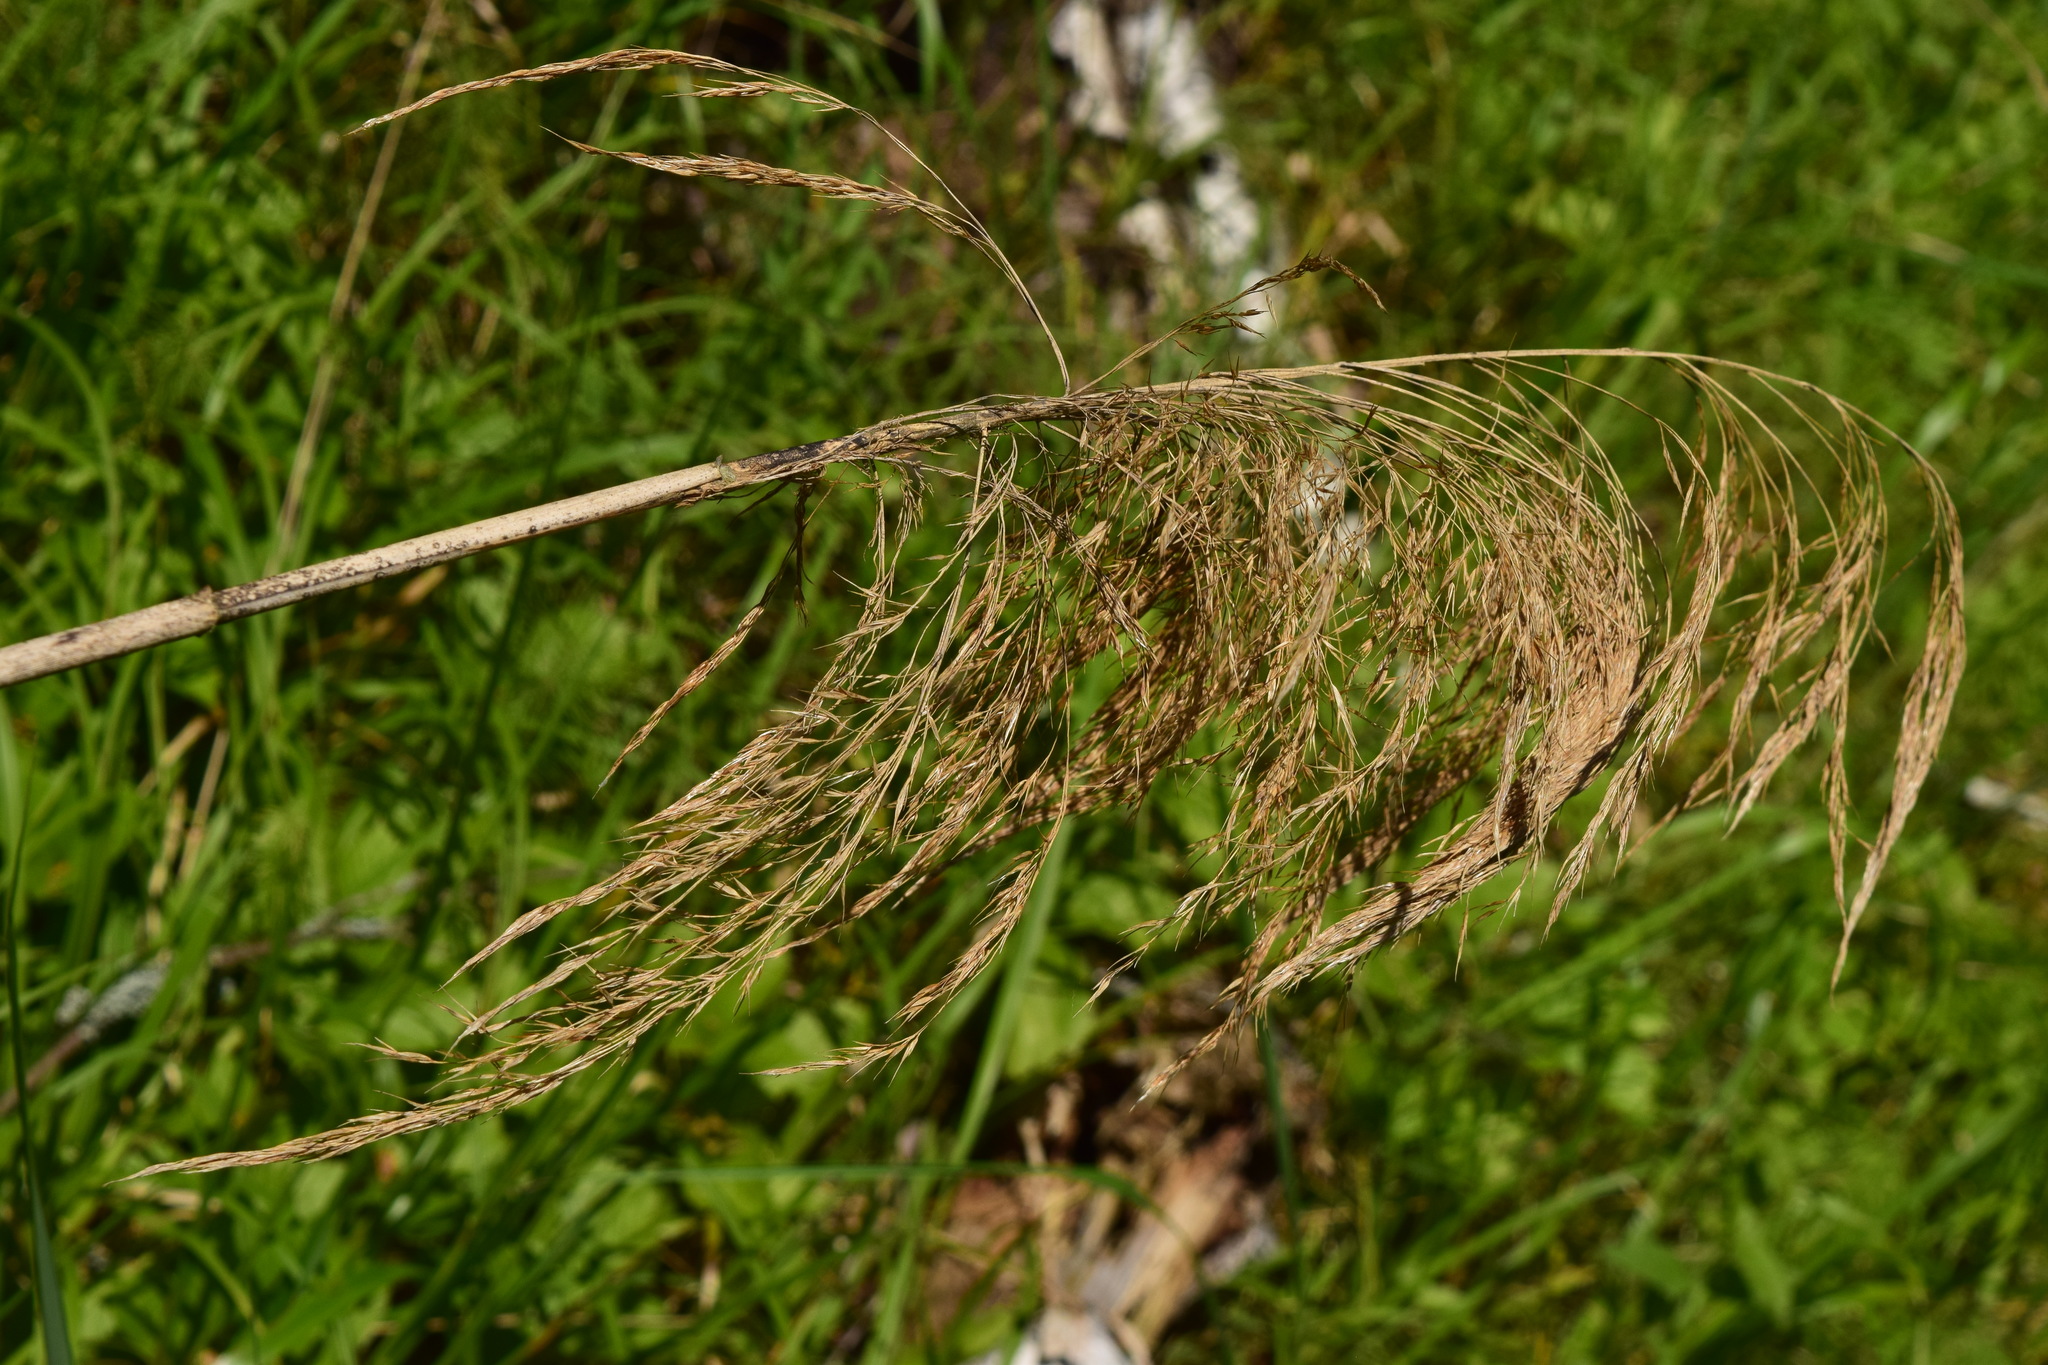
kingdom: Plantae
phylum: Tracheophyta
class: Liliopsida
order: Poales
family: Poaceae
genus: Phragmites
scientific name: Phragmites australis
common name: Common reed
